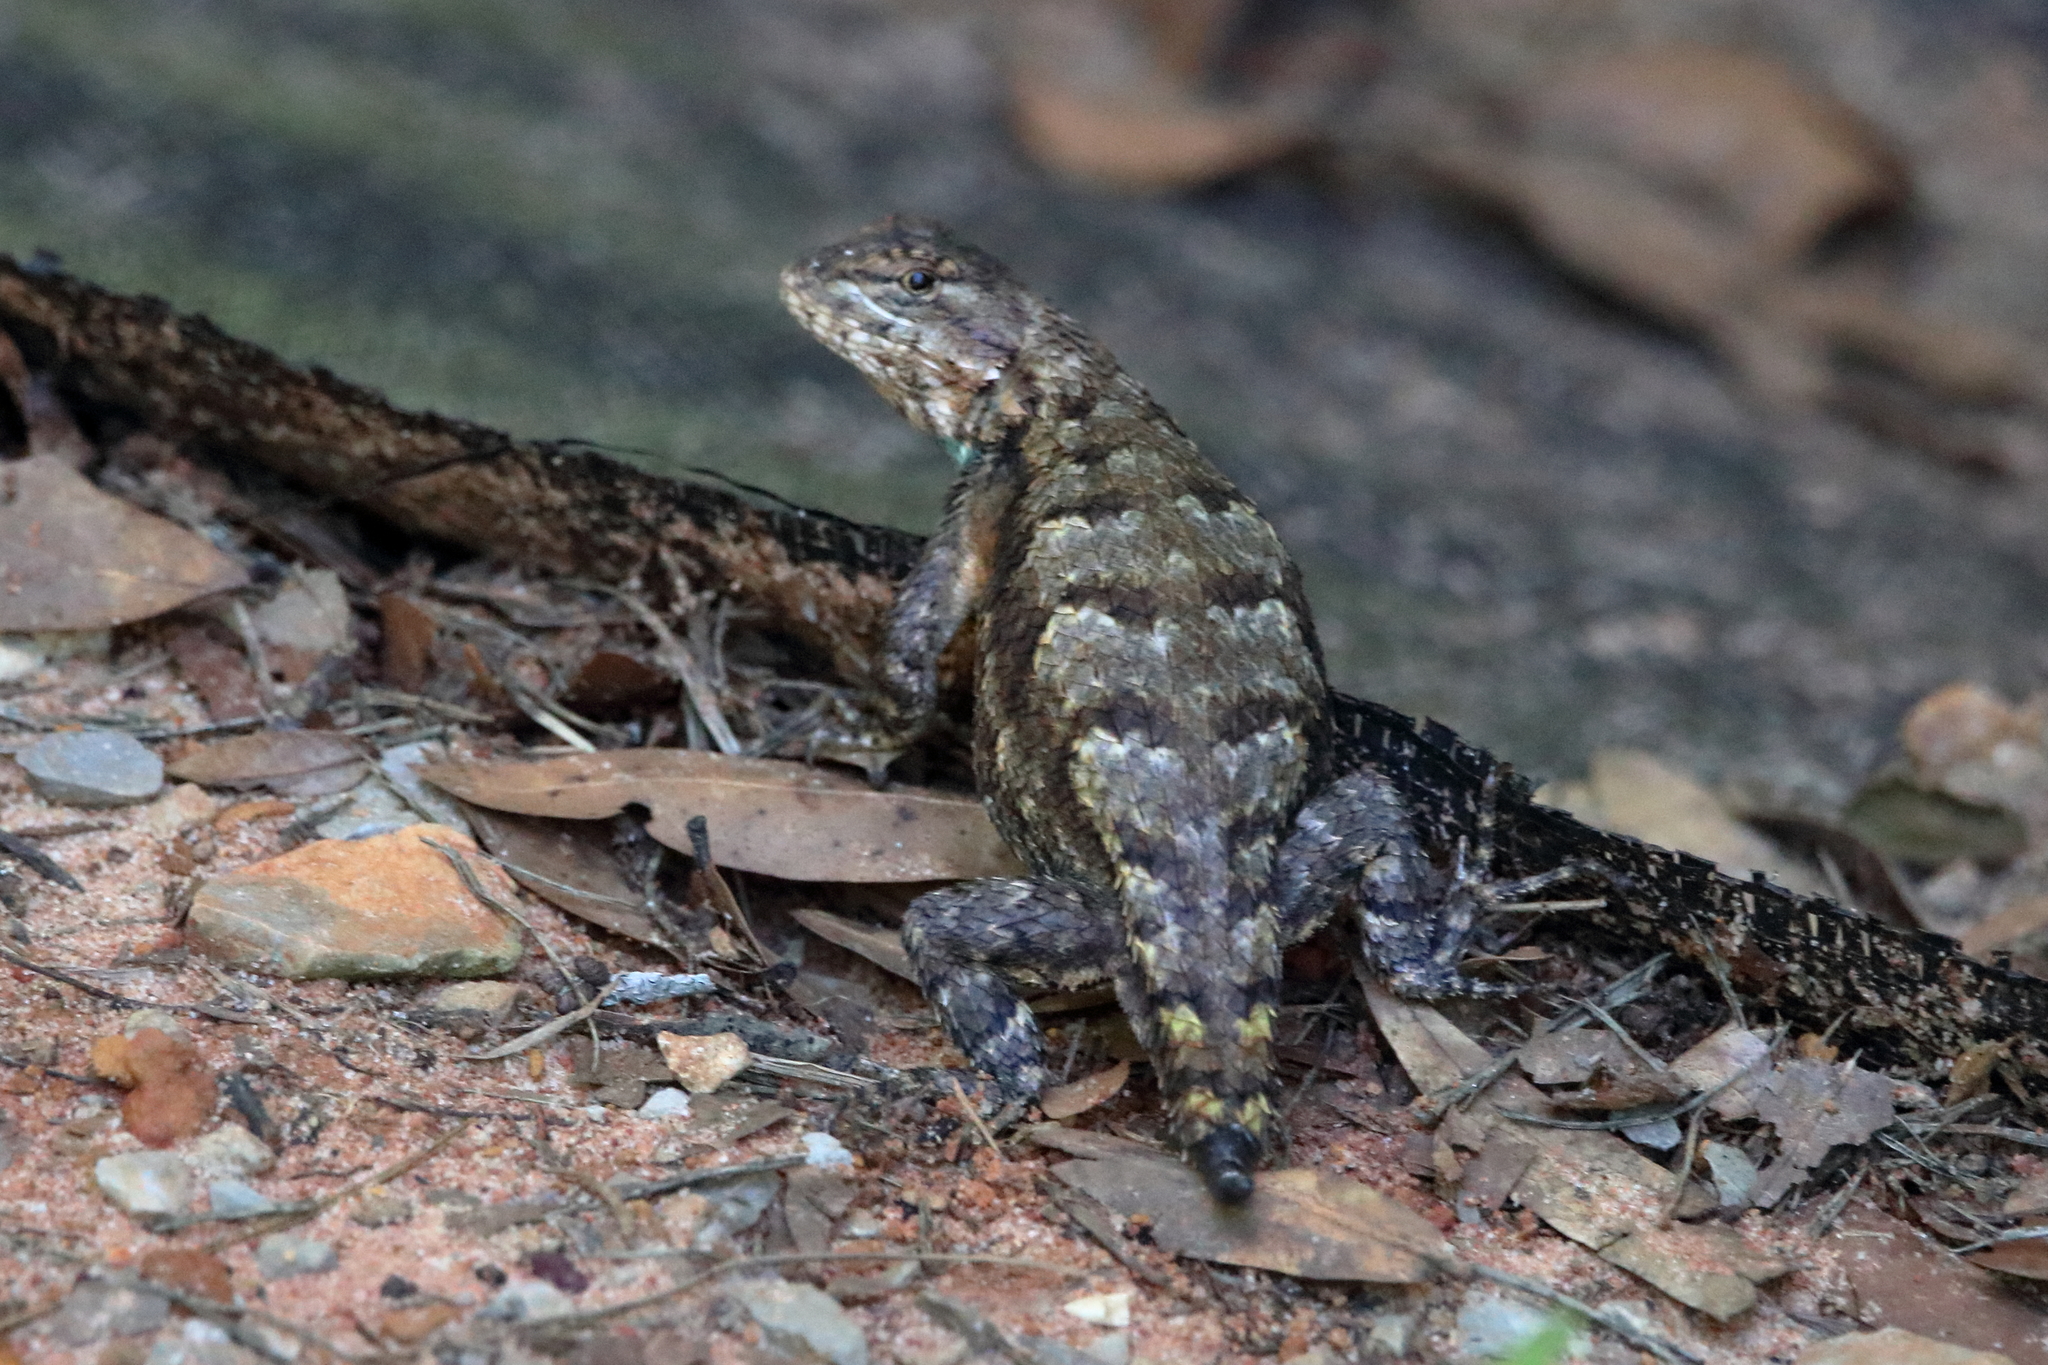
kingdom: Animalia
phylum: Chordata
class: Squamata
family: Phrynosomatidae
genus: Sceloporus
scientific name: Sceloporus consobrinus
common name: Southern prairie lizard
